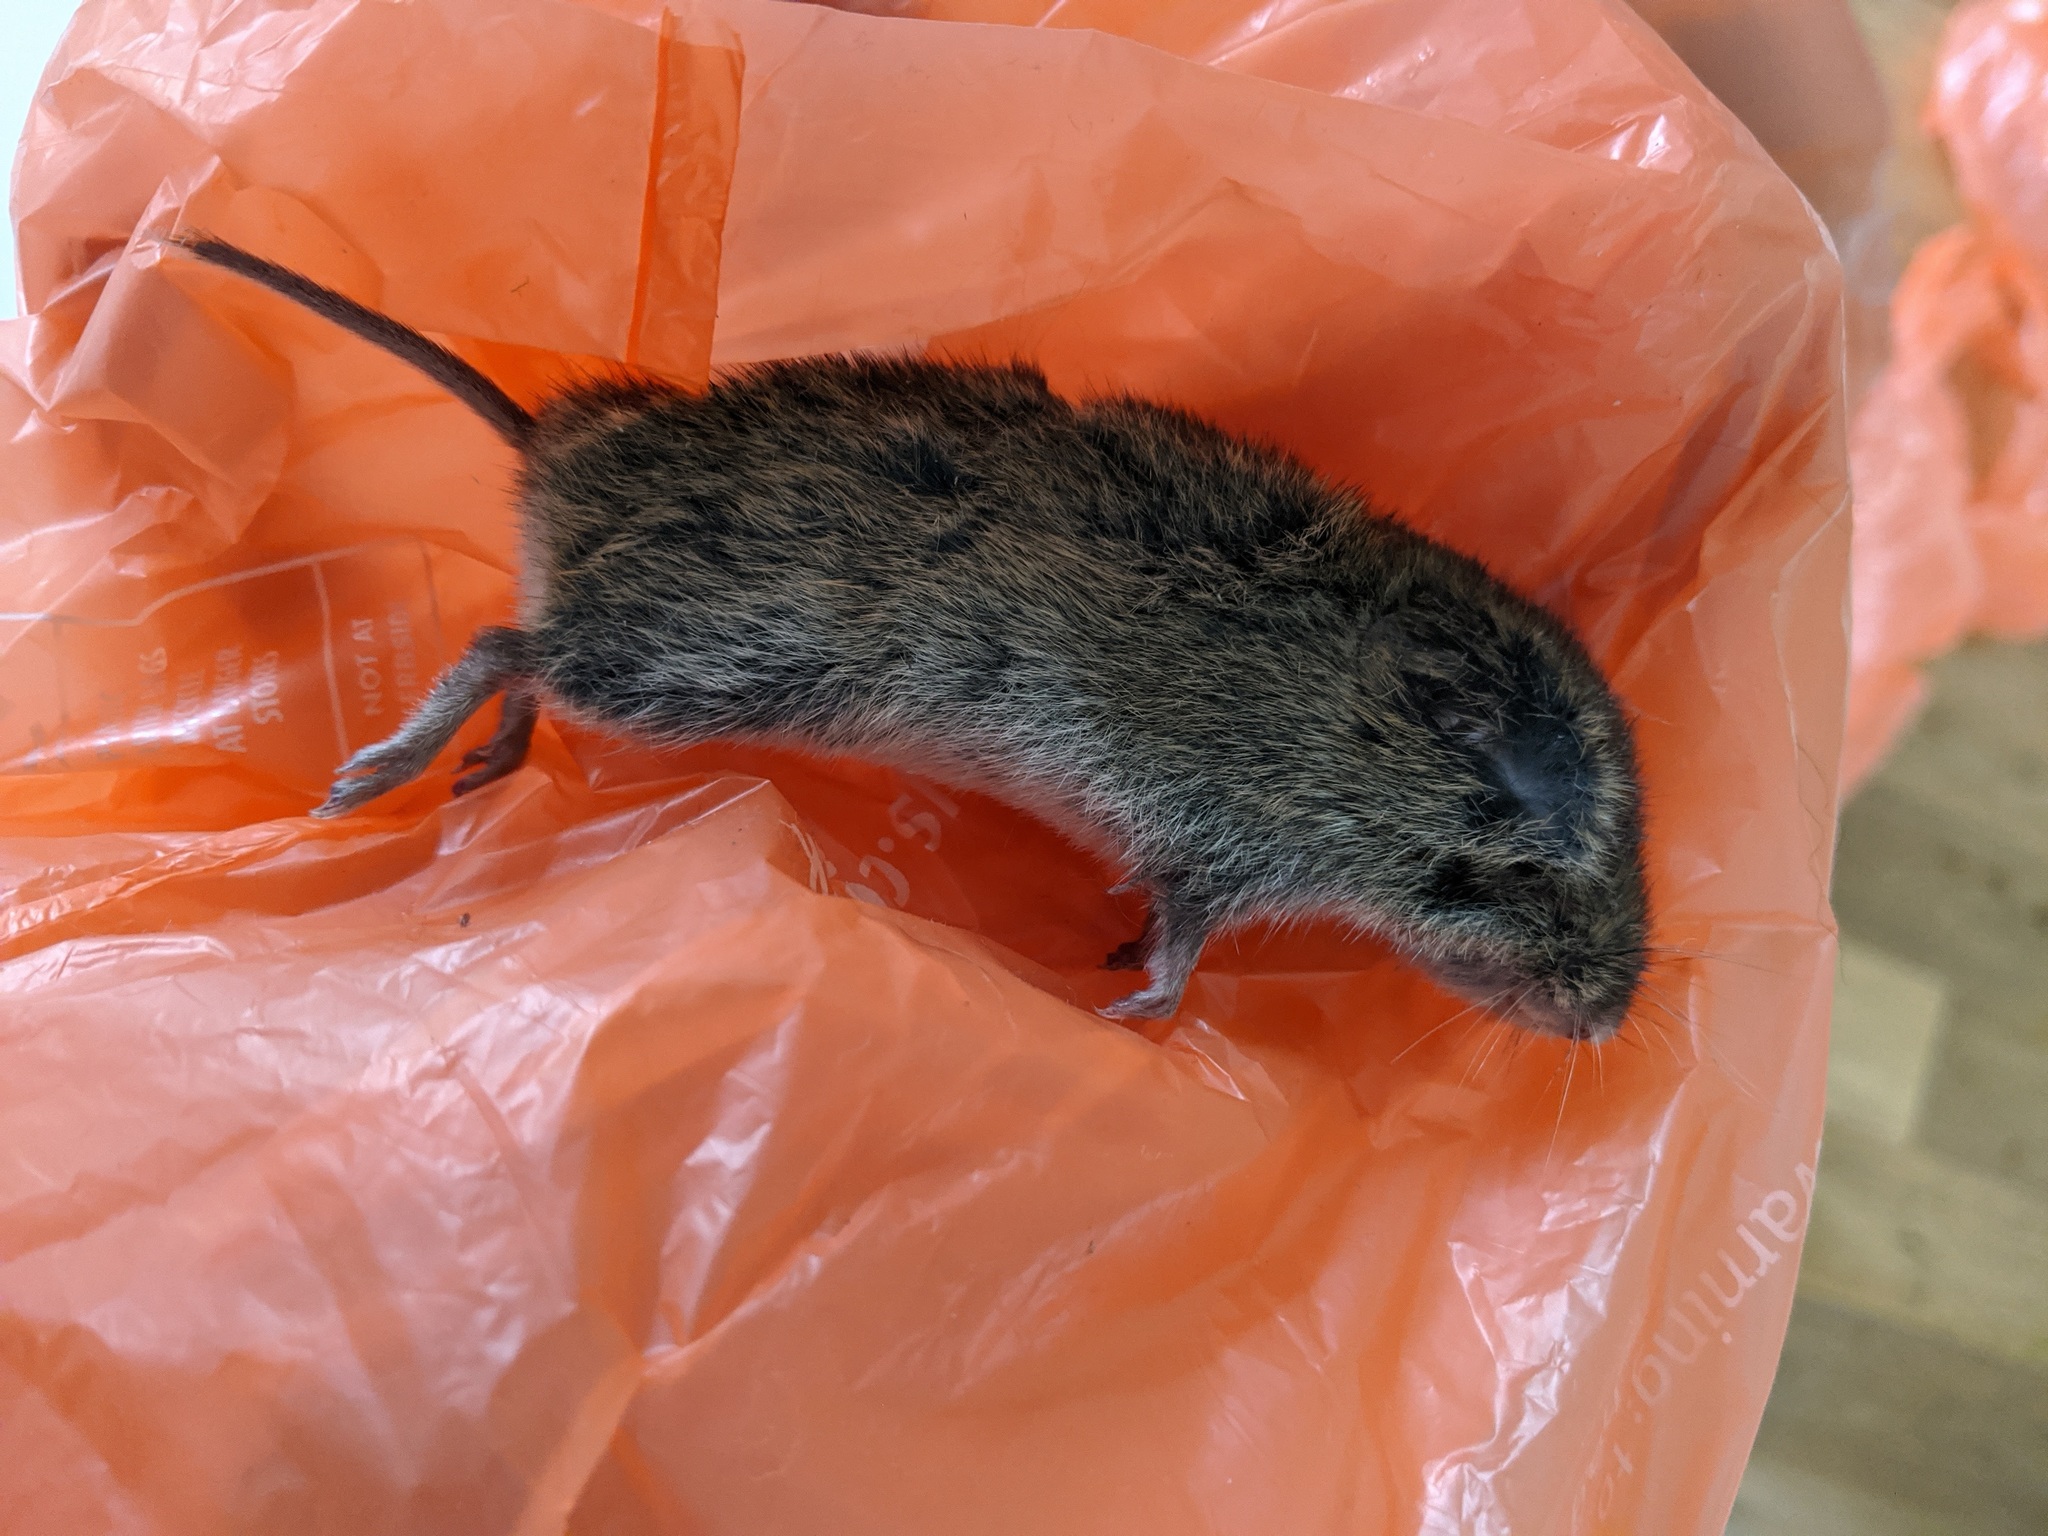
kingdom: Animalia
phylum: Chordata
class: Mammalia
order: Rodentia
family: Cricetidae
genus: Microtus
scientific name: Microtus agrestis
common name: Field vole
